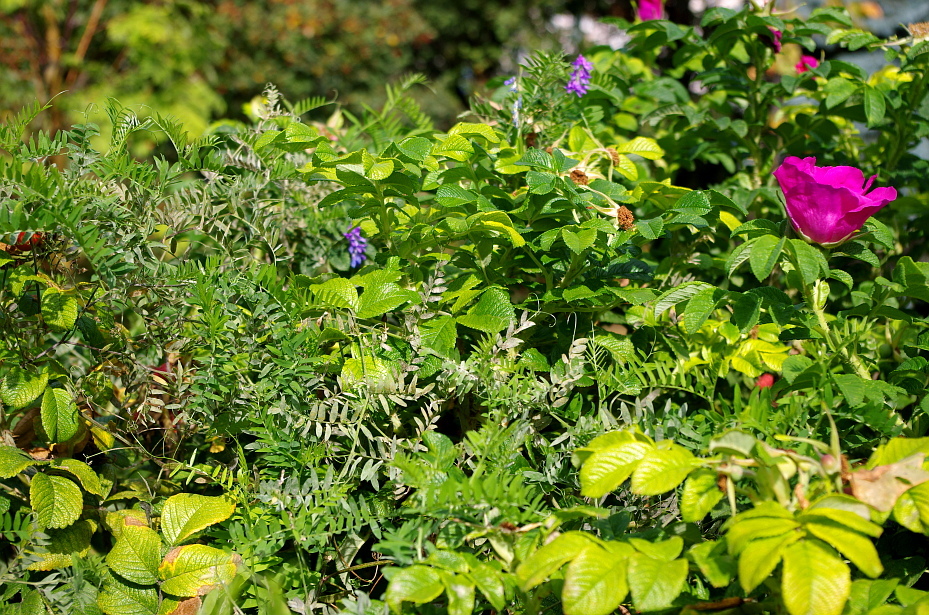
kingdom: Plantae
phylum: Tracheophyta
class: Magnoliopsida
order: Fabales
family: Fabaceae
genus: Vicia
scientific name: Vicia cracca
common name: Bird vetch
